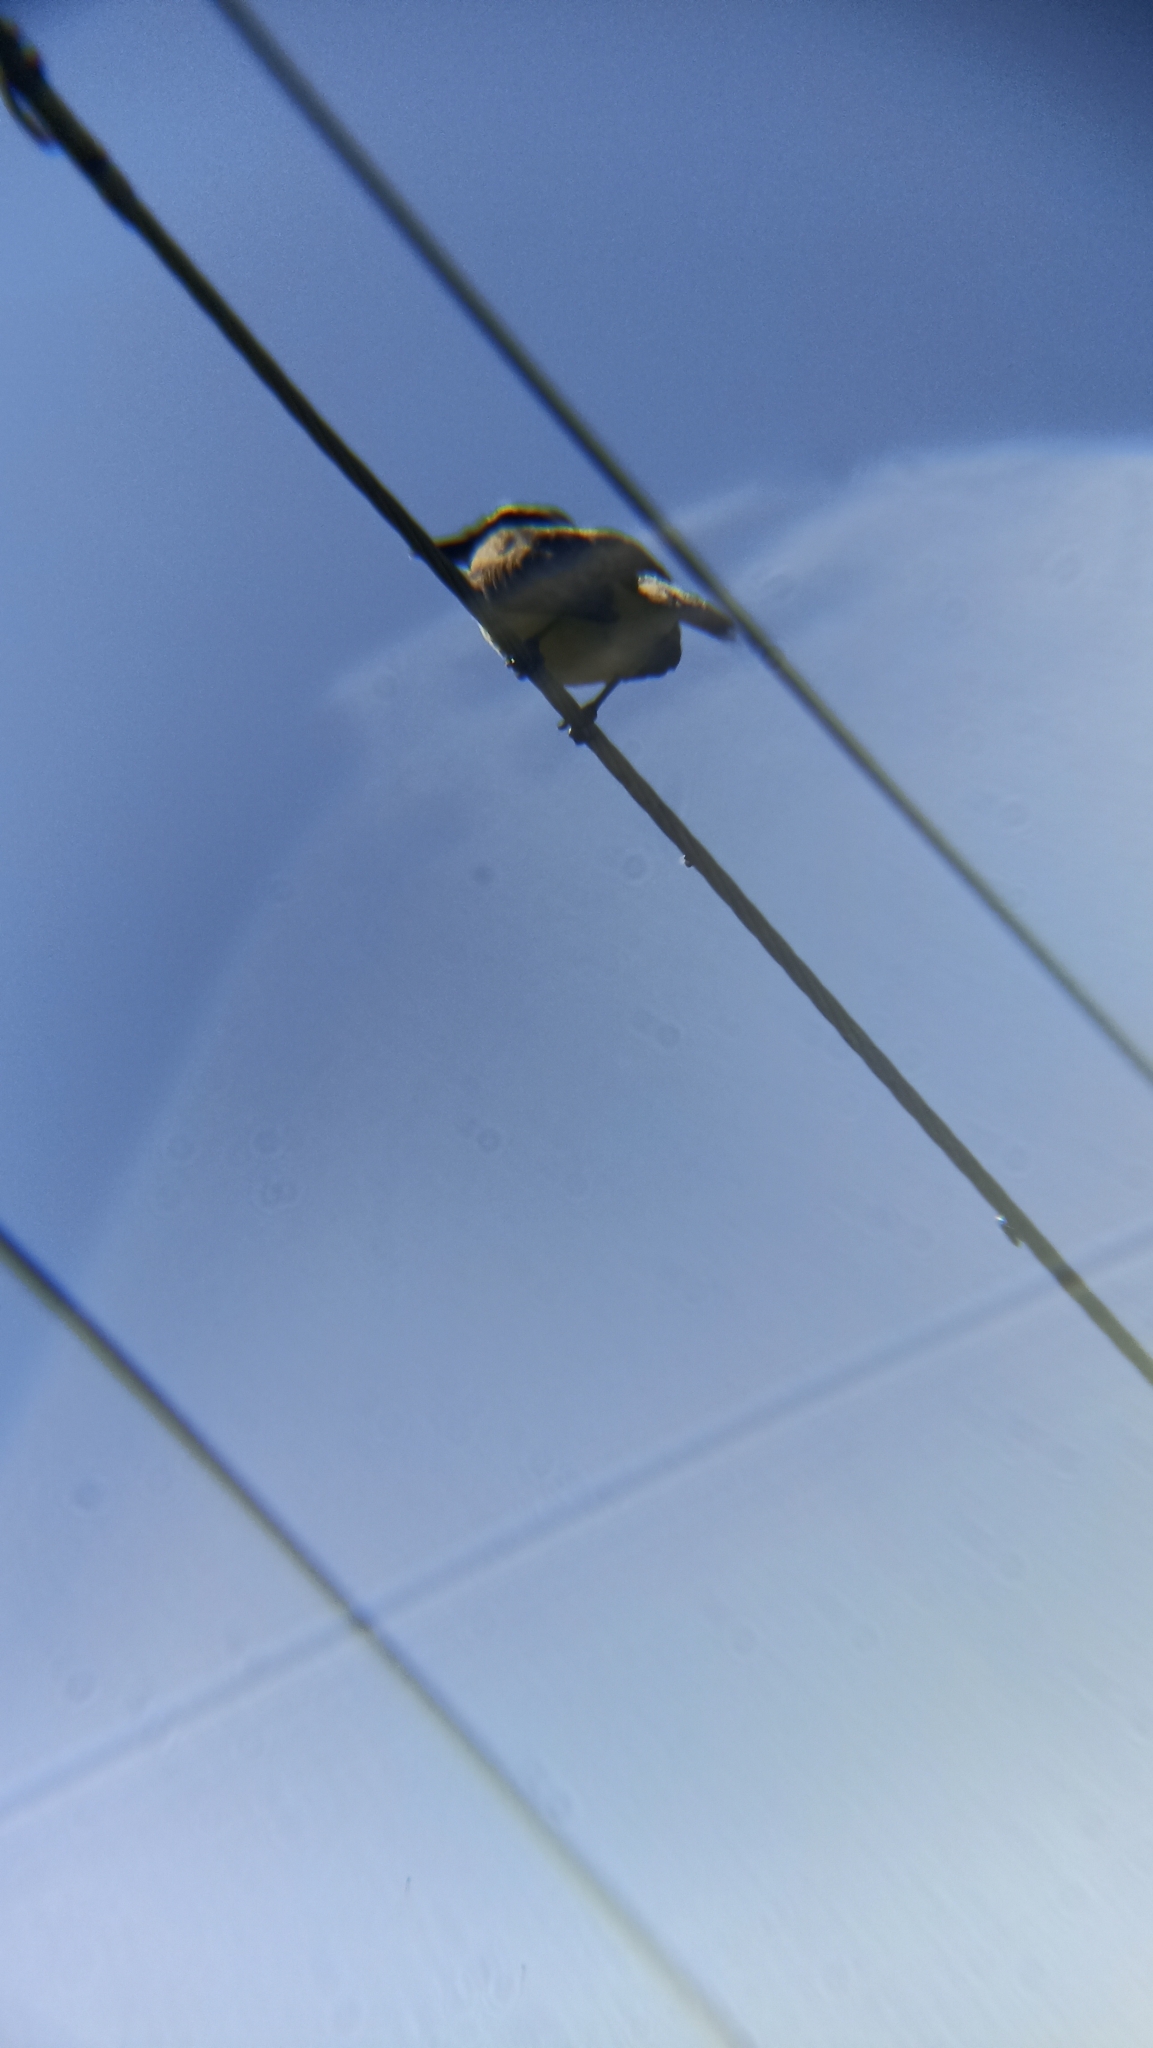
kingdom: Animalia
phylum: Chordata
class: Aves
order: Passeriformes
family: Tyrannidae
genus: Pitangus
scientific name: Pitangus sulphuratus
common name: Great kiskadee
